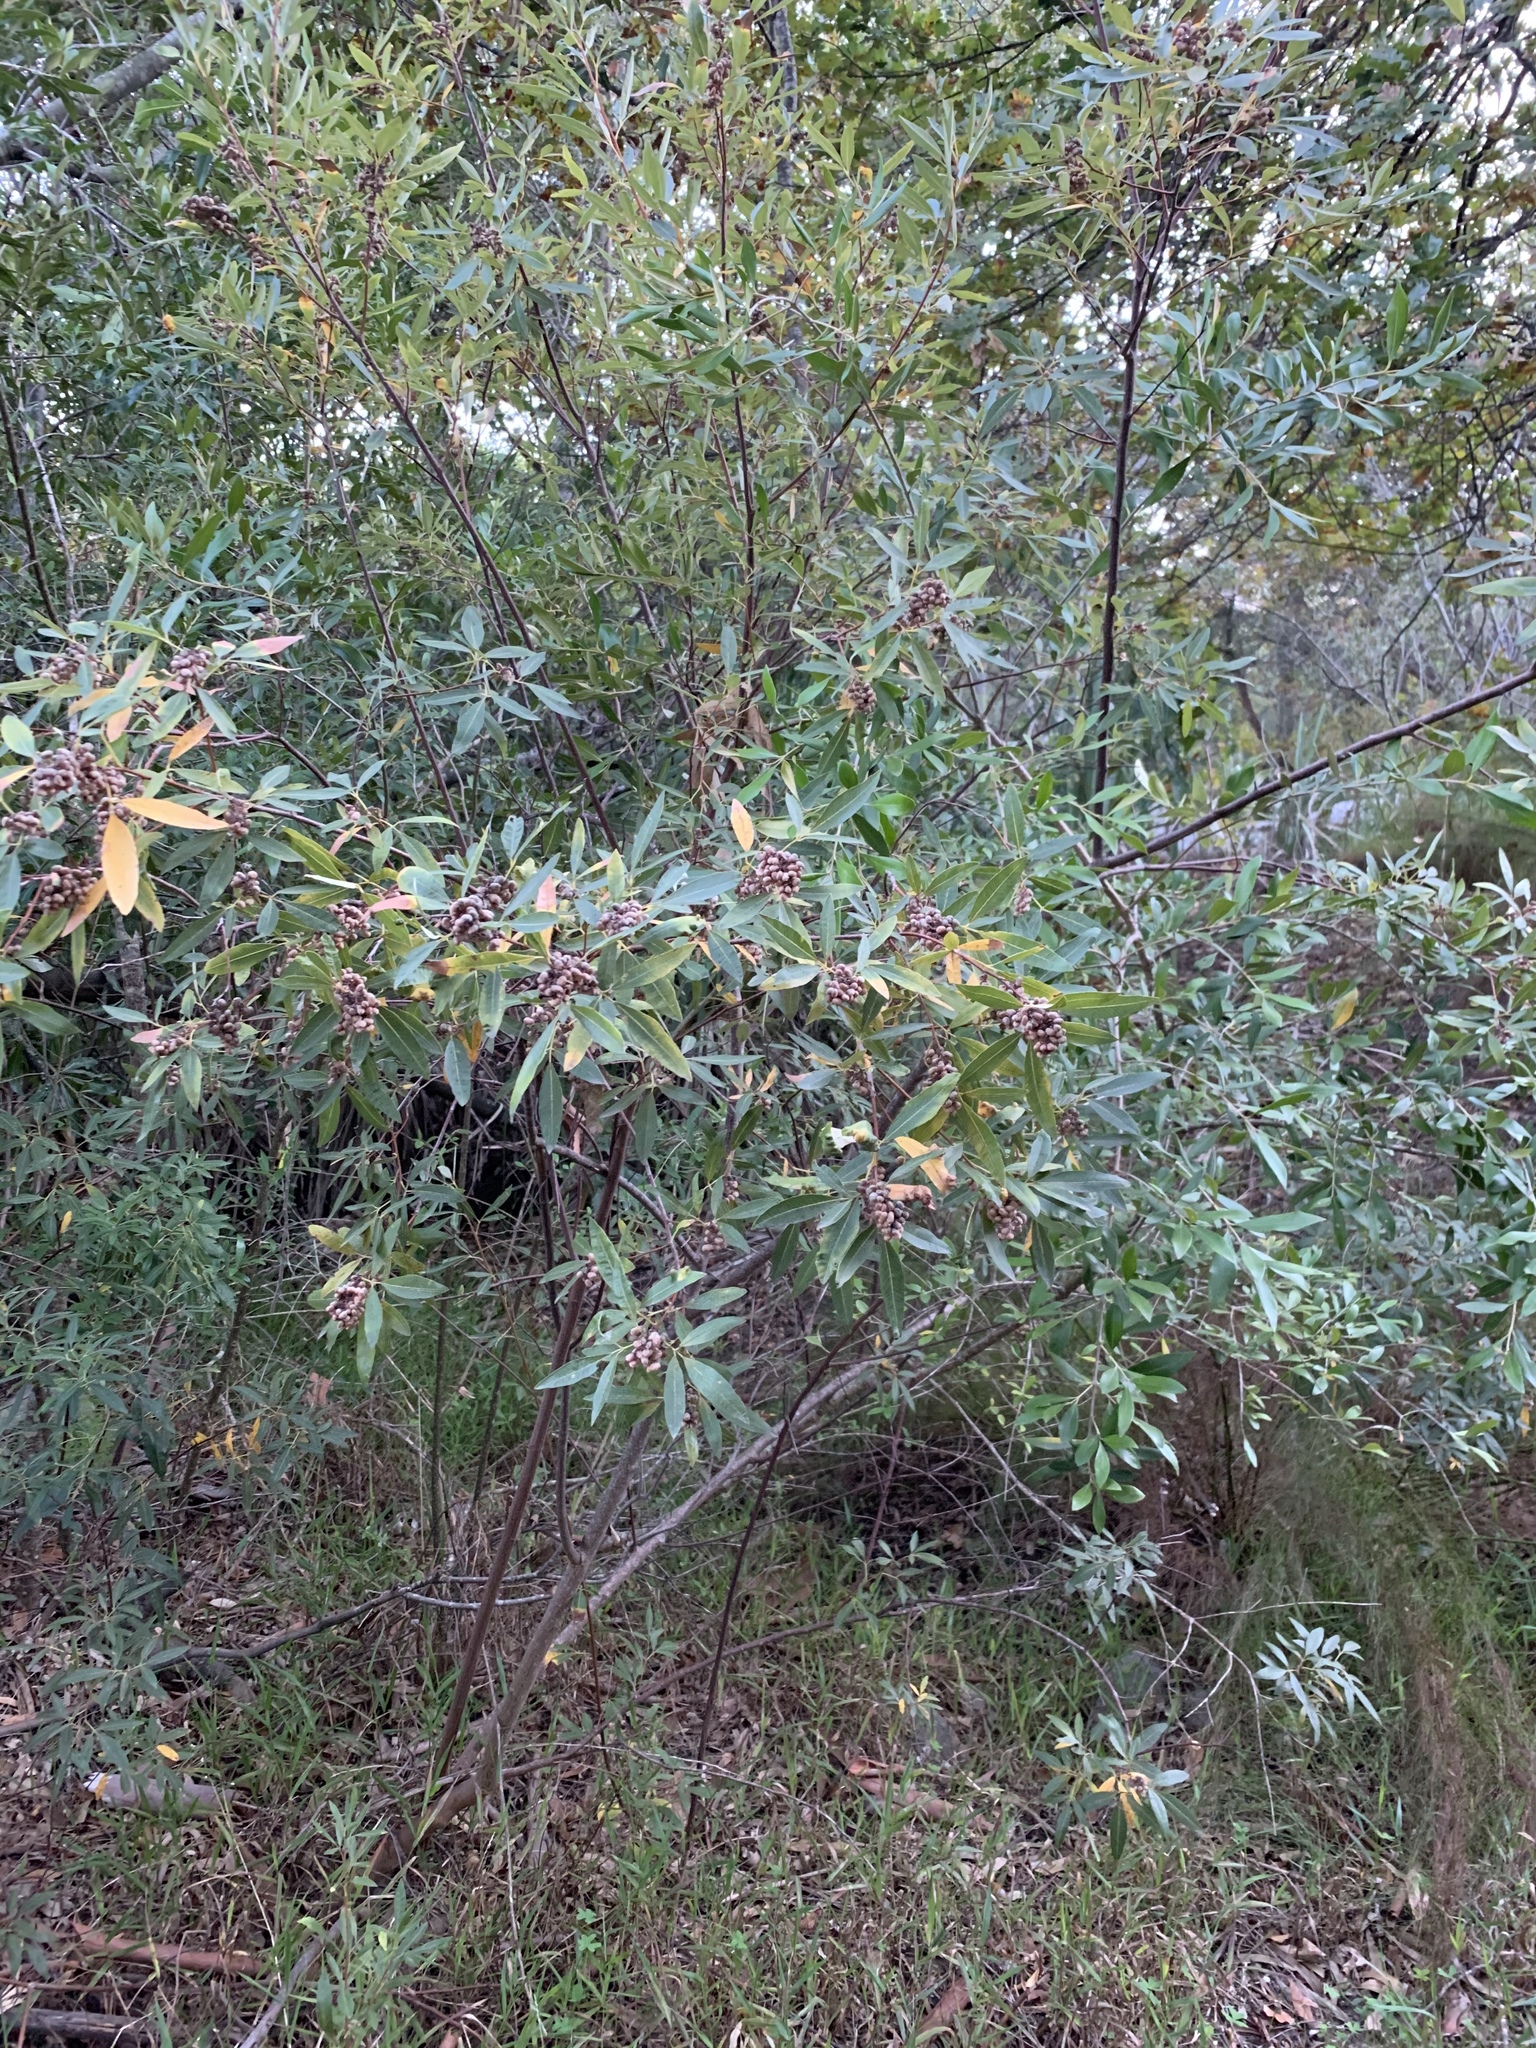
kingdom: Plantae
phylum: Tracheophyta
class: Magnoliopsida
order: Sapindales
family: Anacardiaceae
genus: Searsia
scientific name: Searsia angustifolia
